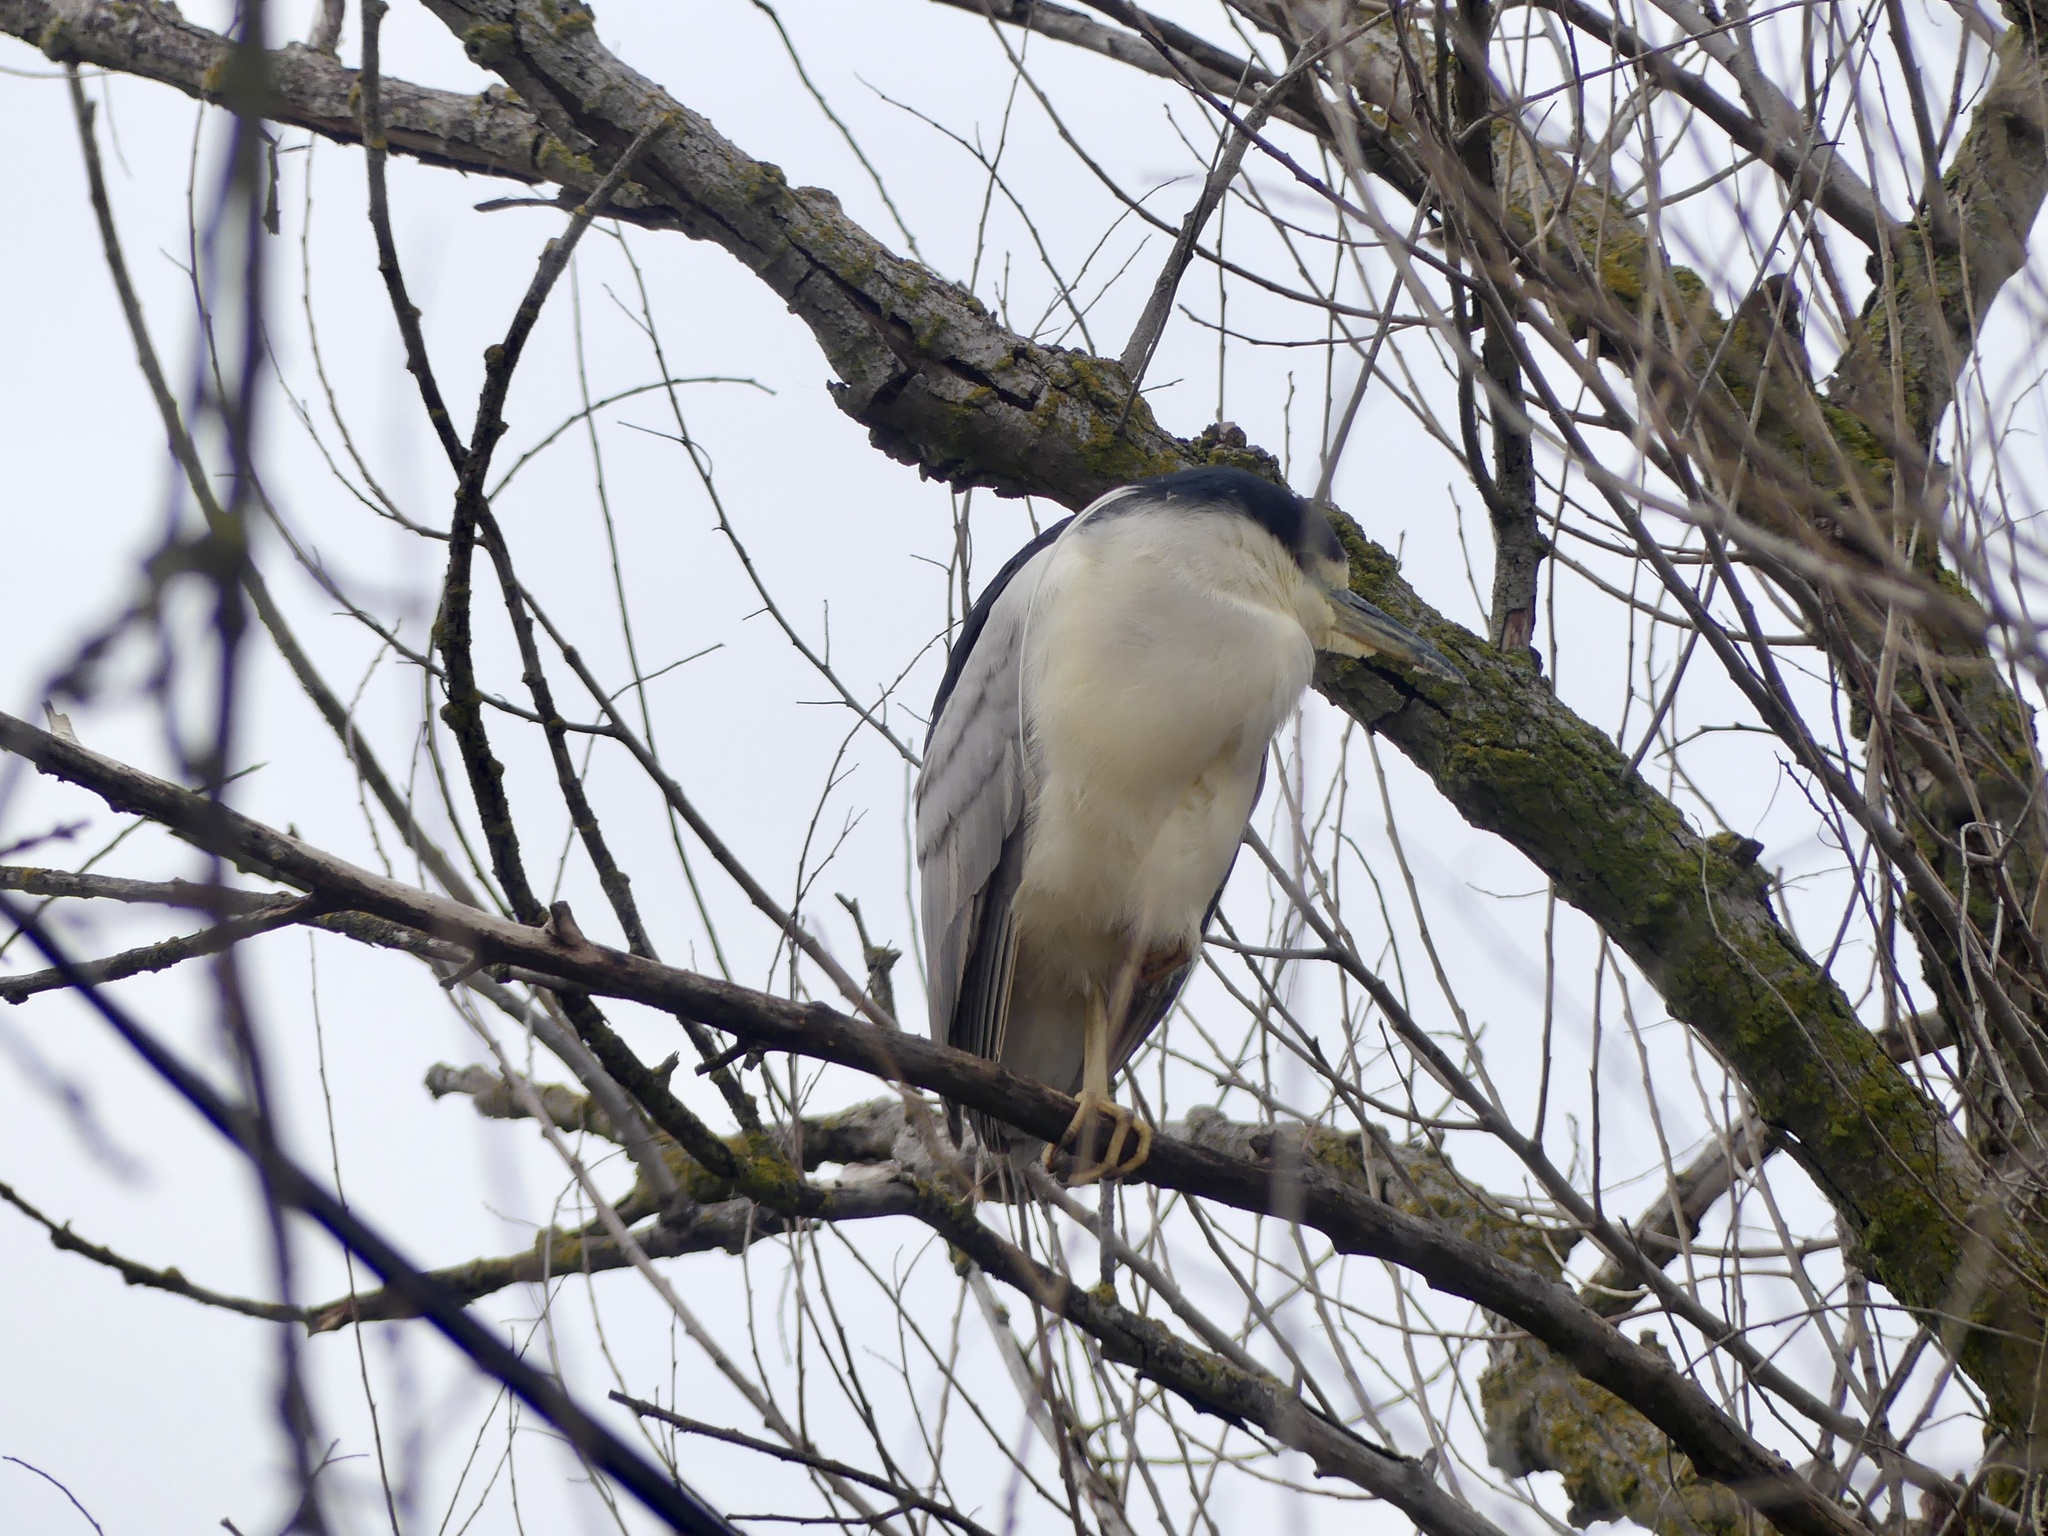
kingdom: Animalia
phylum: Chordata
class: Aves
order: Pelecaniformes
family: Ardeidae
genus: Nycticorax
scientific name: Nycticorax nycticorax
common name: Black-crowned night heron
